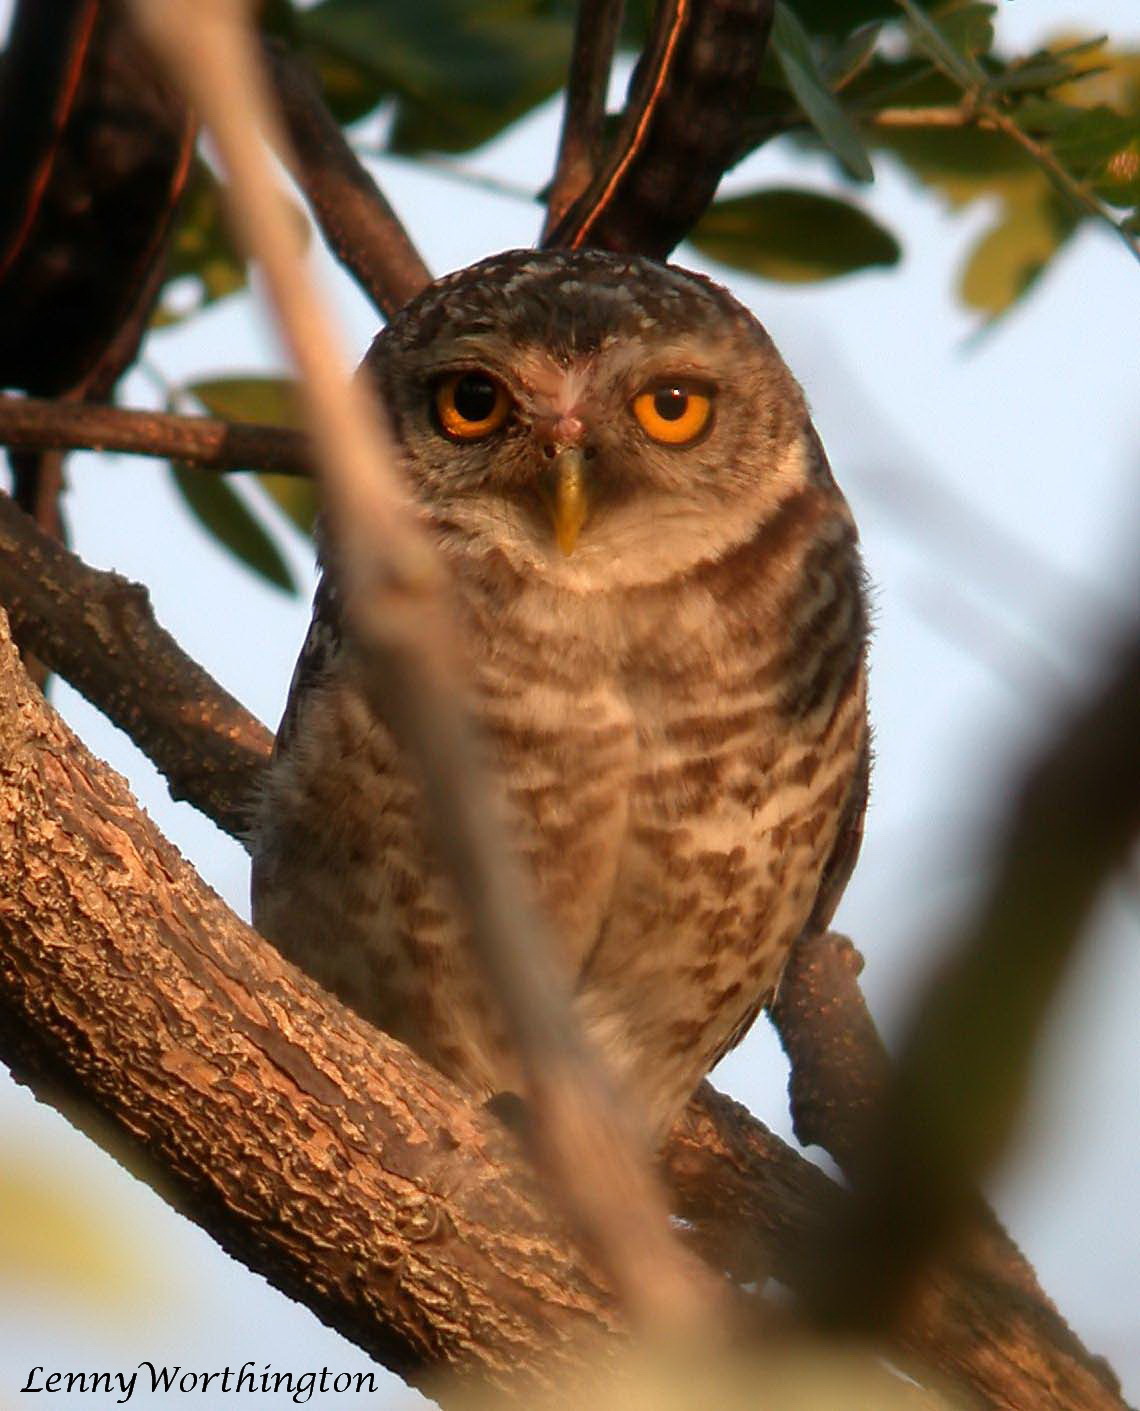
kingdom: Animalia
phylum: Chordata
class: Aves
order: Strigiformes
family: Strigidae
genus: Athene
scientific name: Athene brama
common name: Spotted owlet
